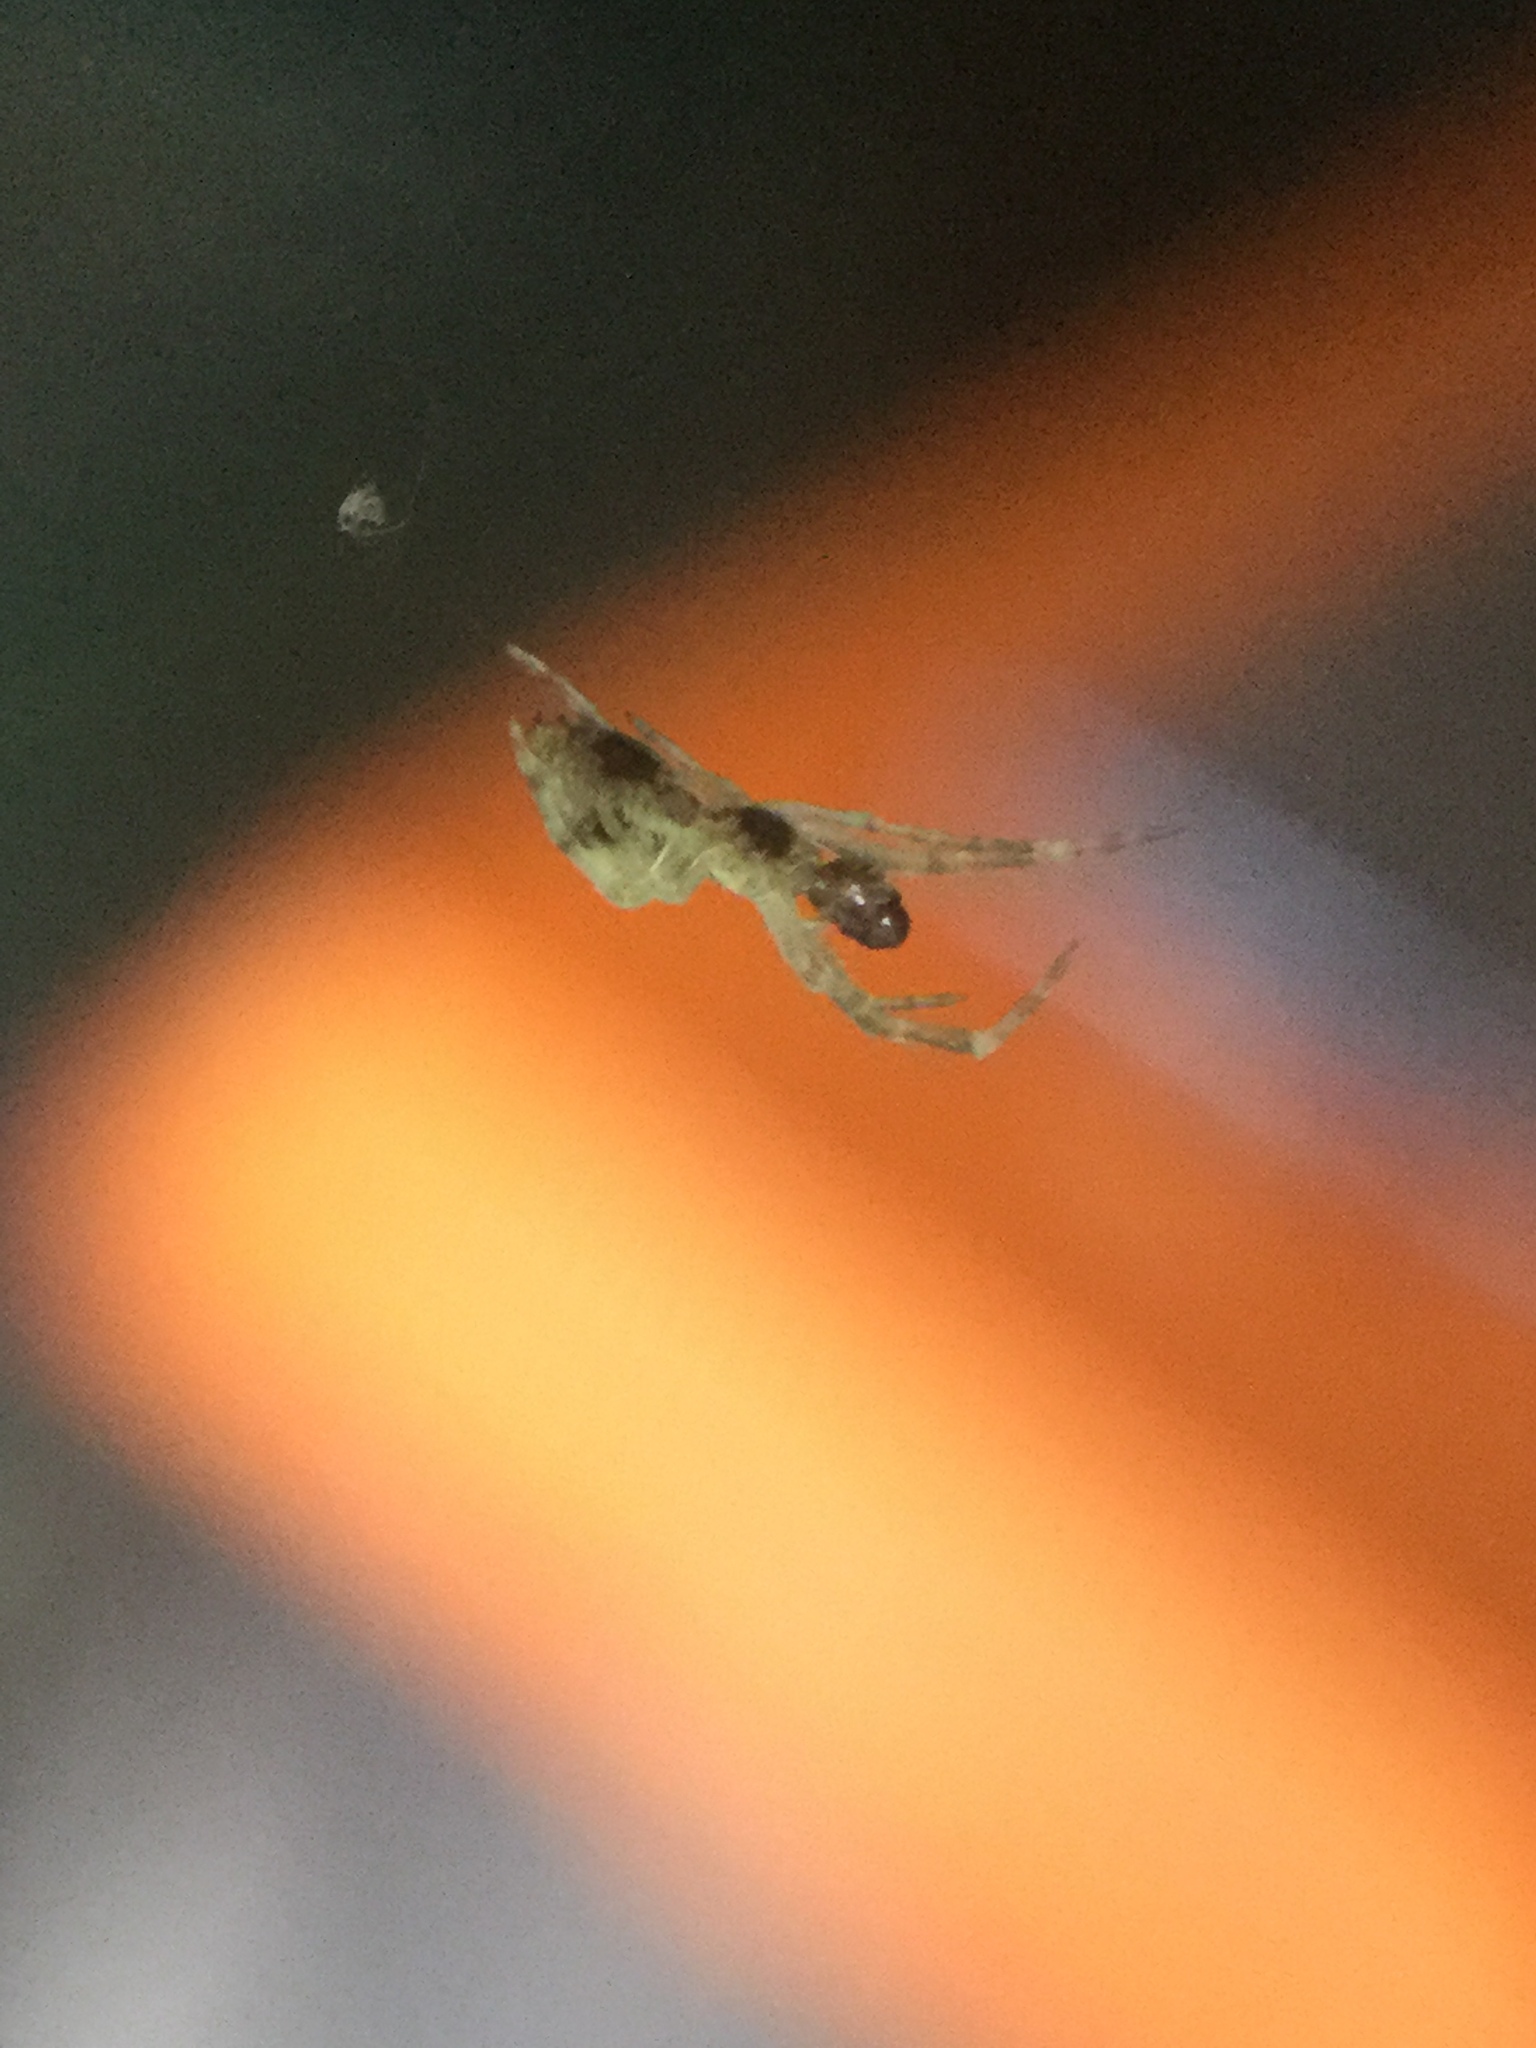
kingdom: Animalia
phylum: Arthropoda
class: Arachnida
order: Araneae
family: Uloboridae
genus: Uloborus
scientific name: Uloborus glomosus
